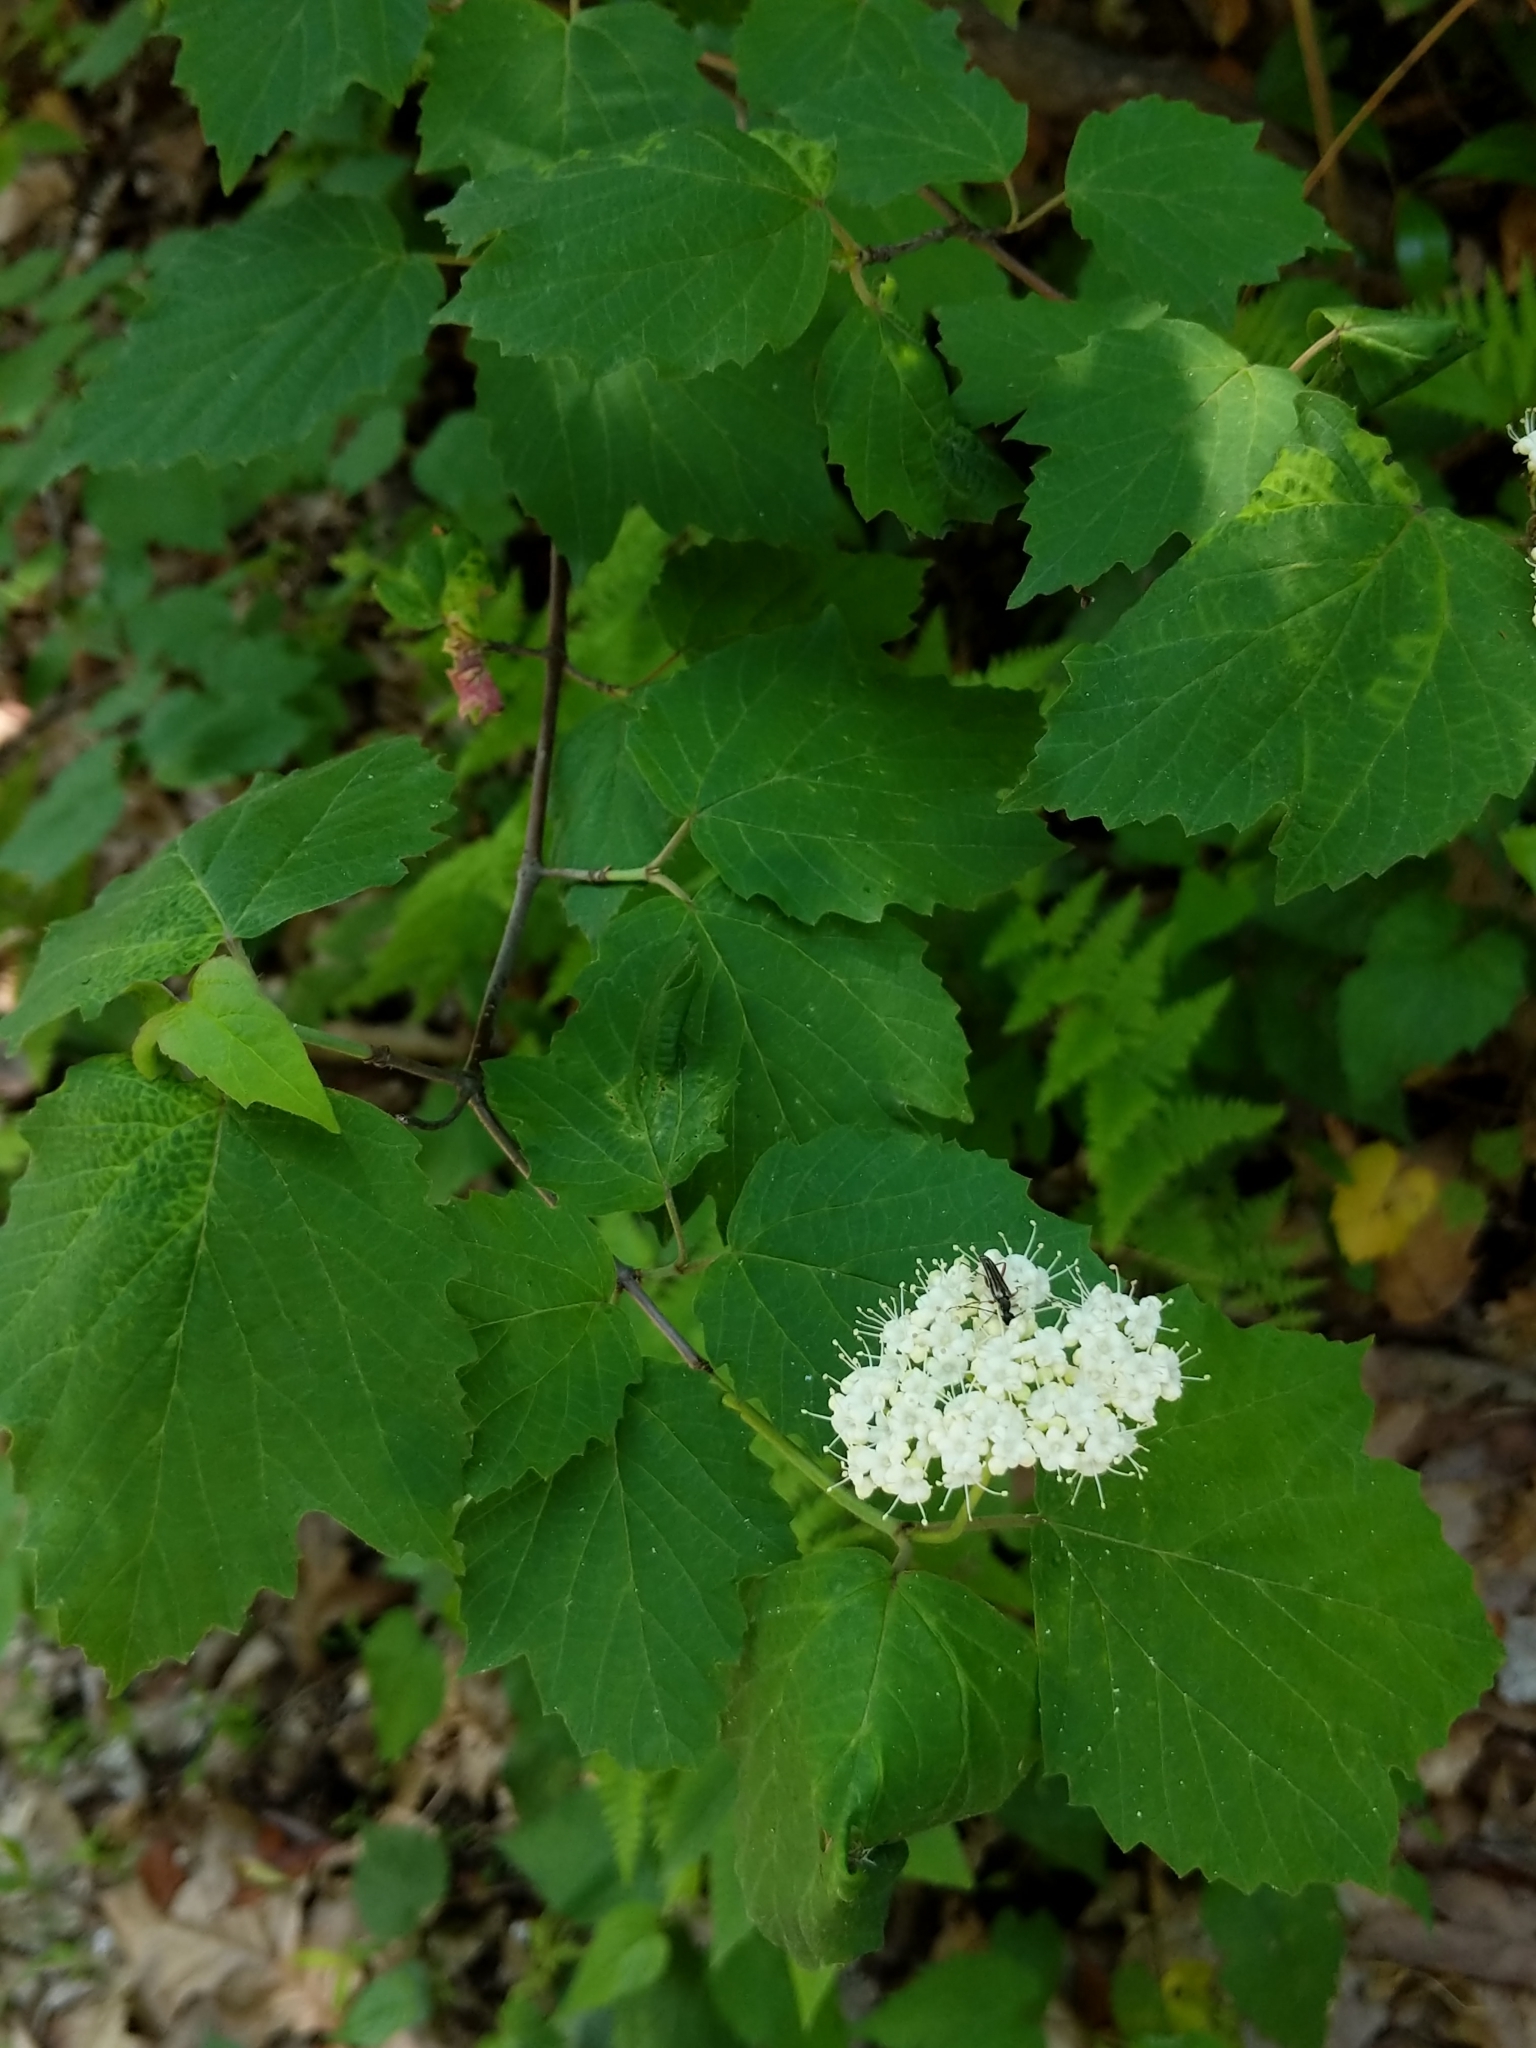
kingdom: Plantae
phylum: Tracheophyta
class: Magnoliopsida
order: Dipsacales
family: Viburnaceae
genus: Viburnum
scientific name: Viburnum acerifolium
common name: Dockmackie
